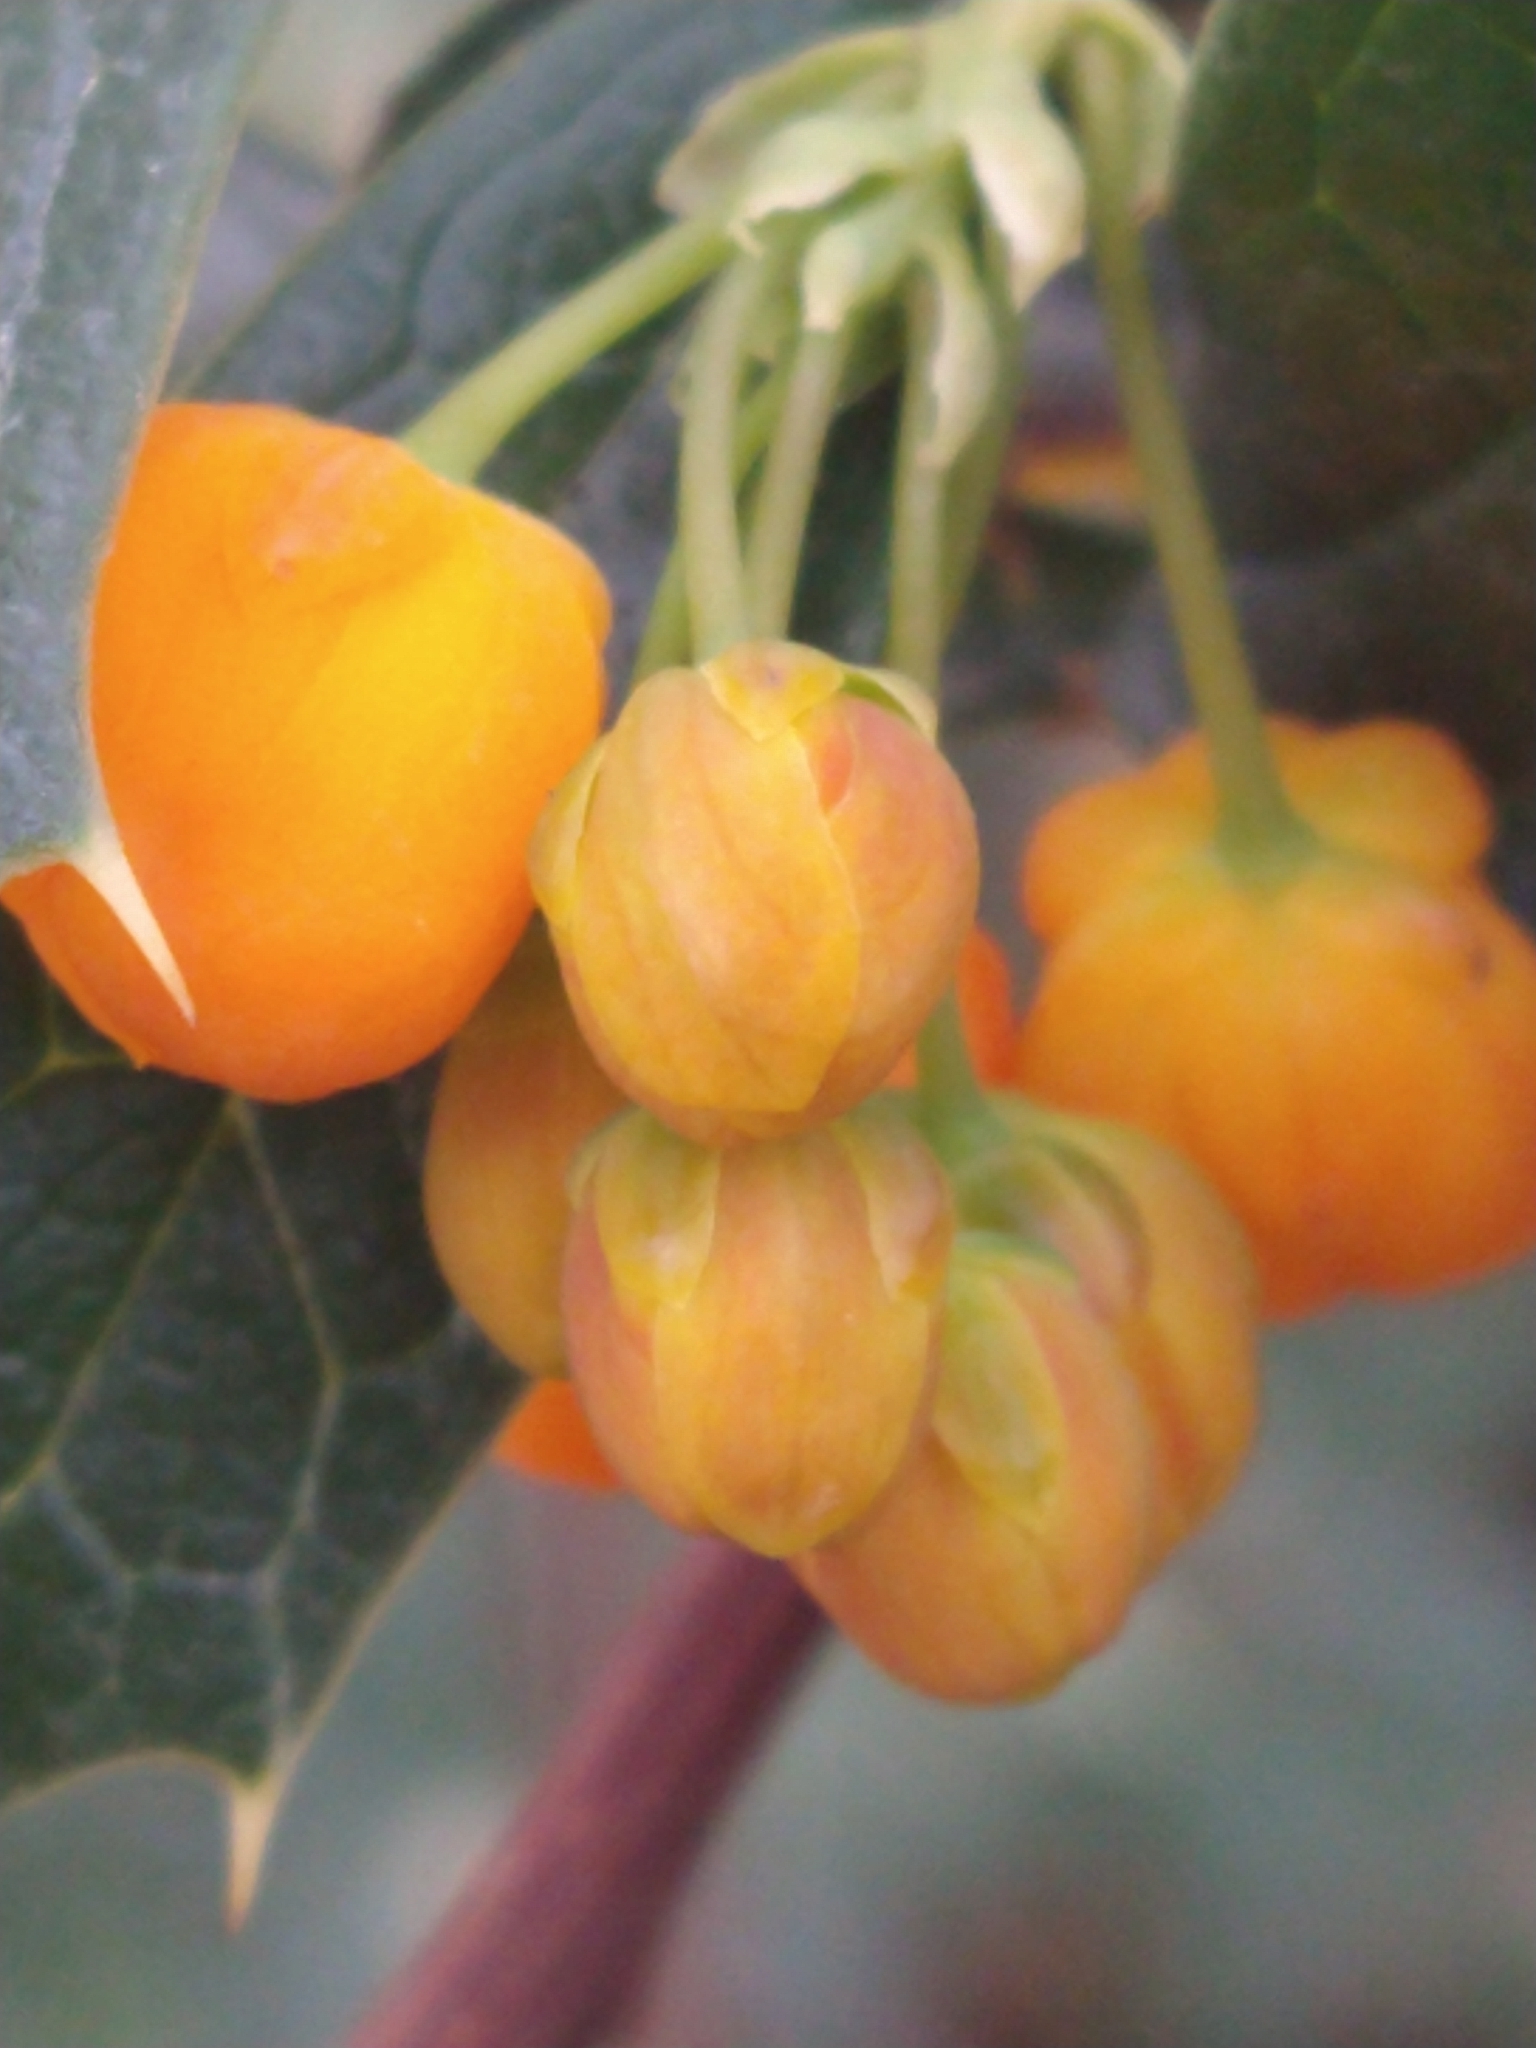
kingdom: Plantae
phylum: Tracheophyta
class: Magnoliopsida
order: Ranunculales
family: Berberidaceae
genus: Berberis
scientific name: Berberis ilicifolia
